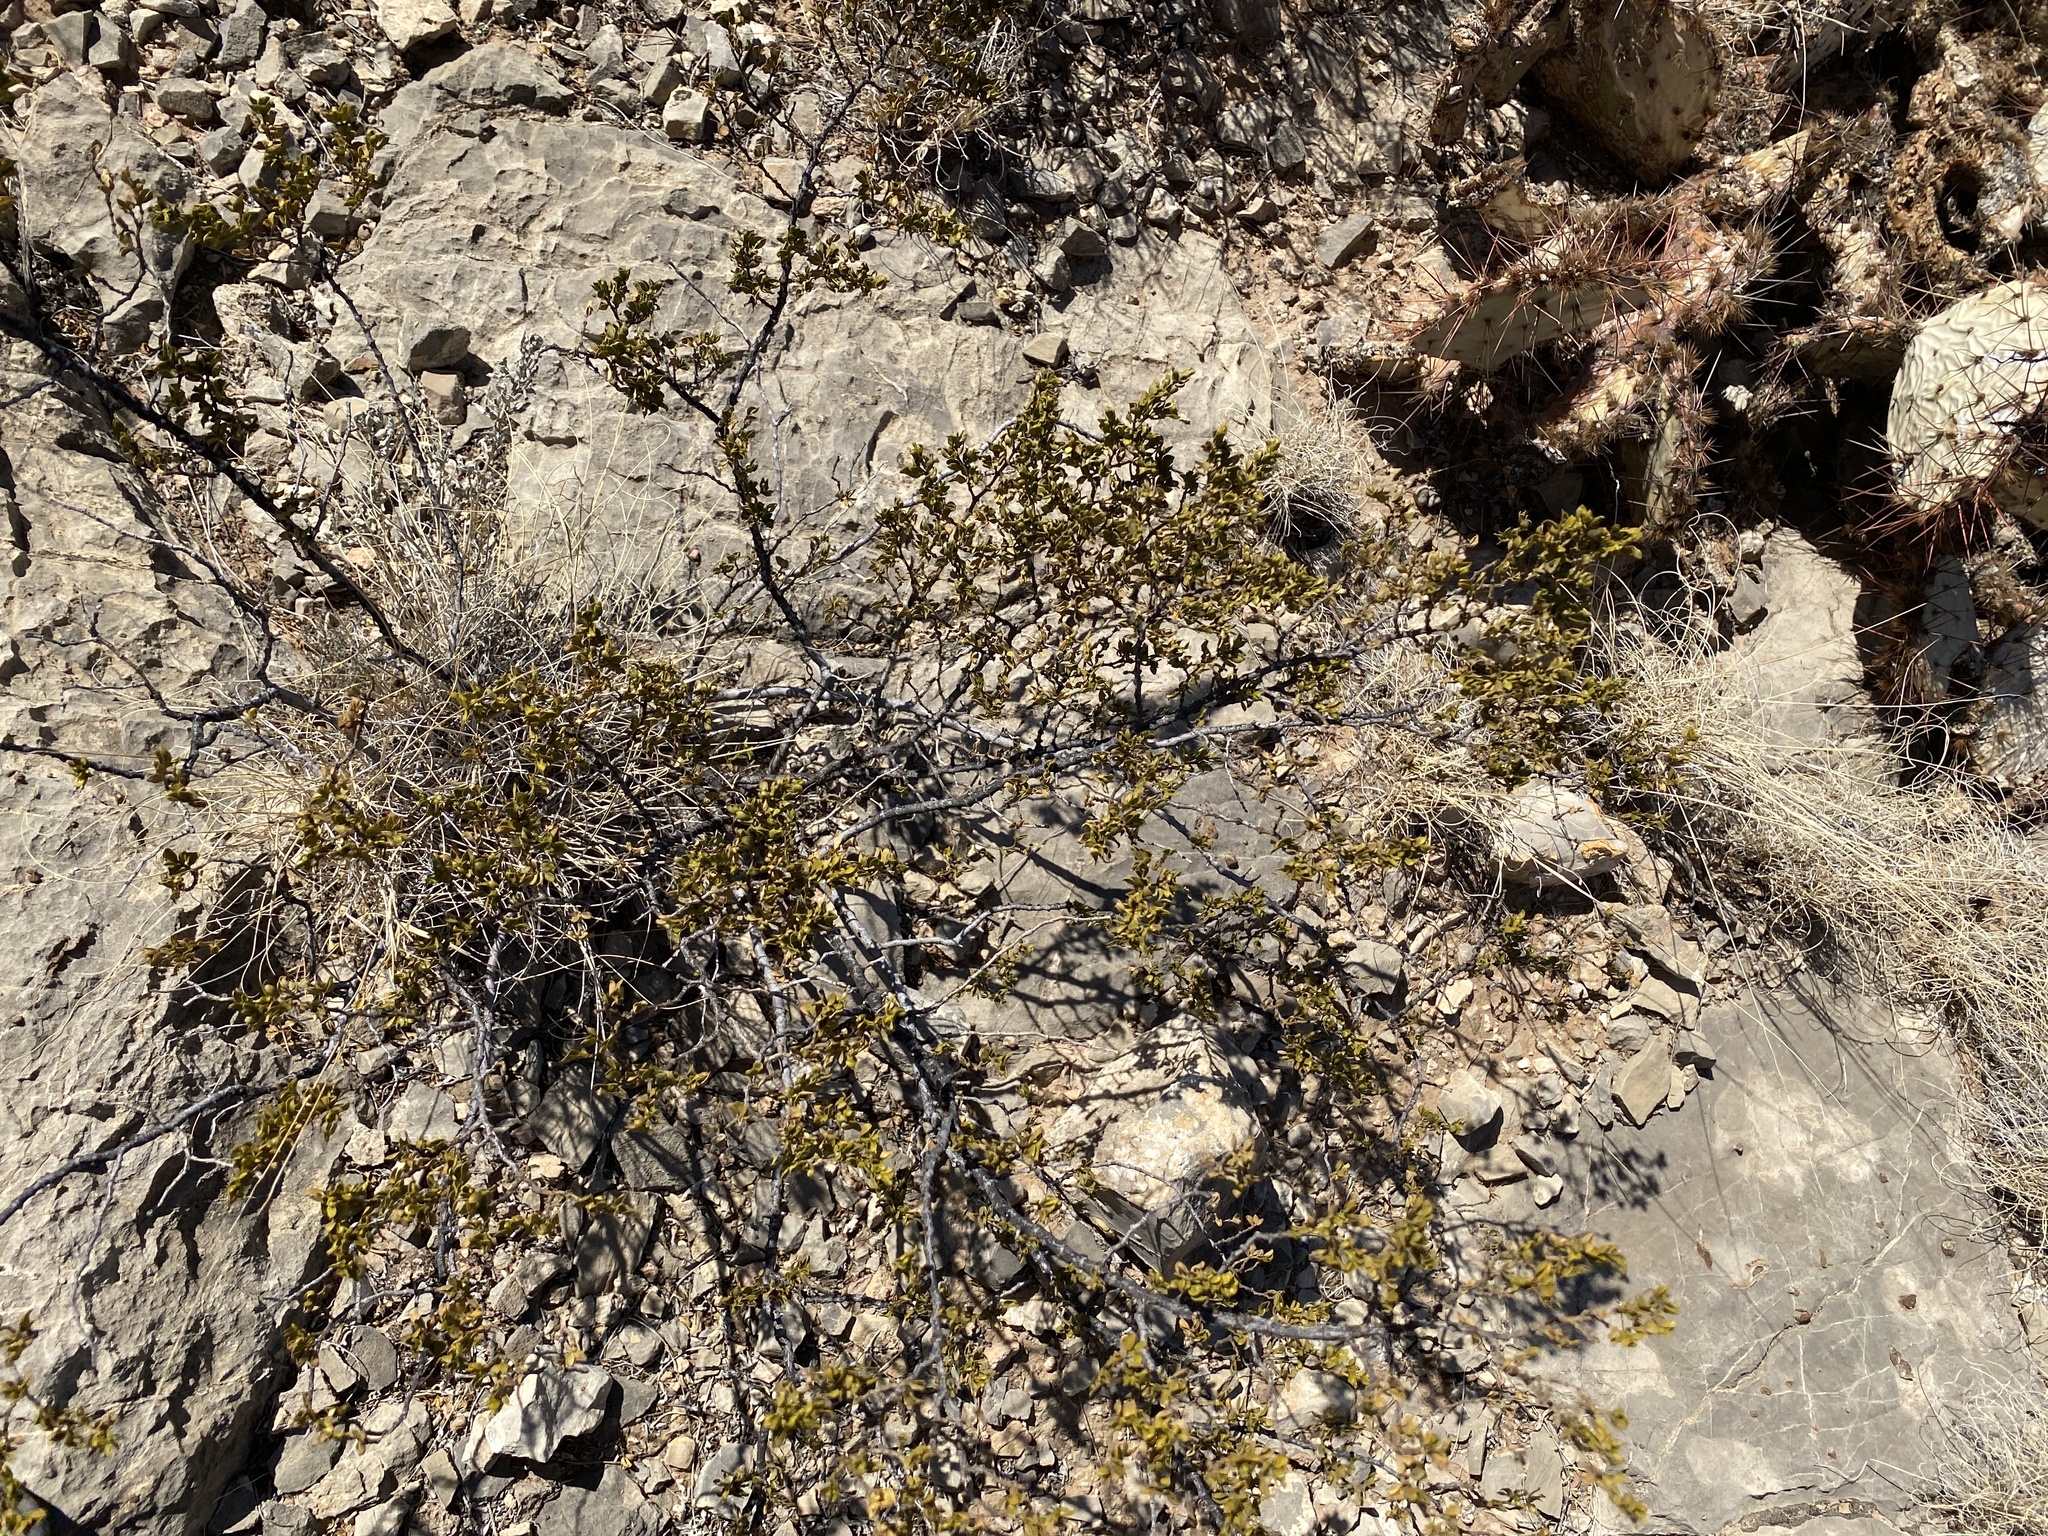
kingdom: Plantae
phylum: Tracheophyta
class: Magnoliopsida
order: Zygophyllales
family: Zygophyllaceae
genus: Larrea
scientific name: Larrea tridentata
